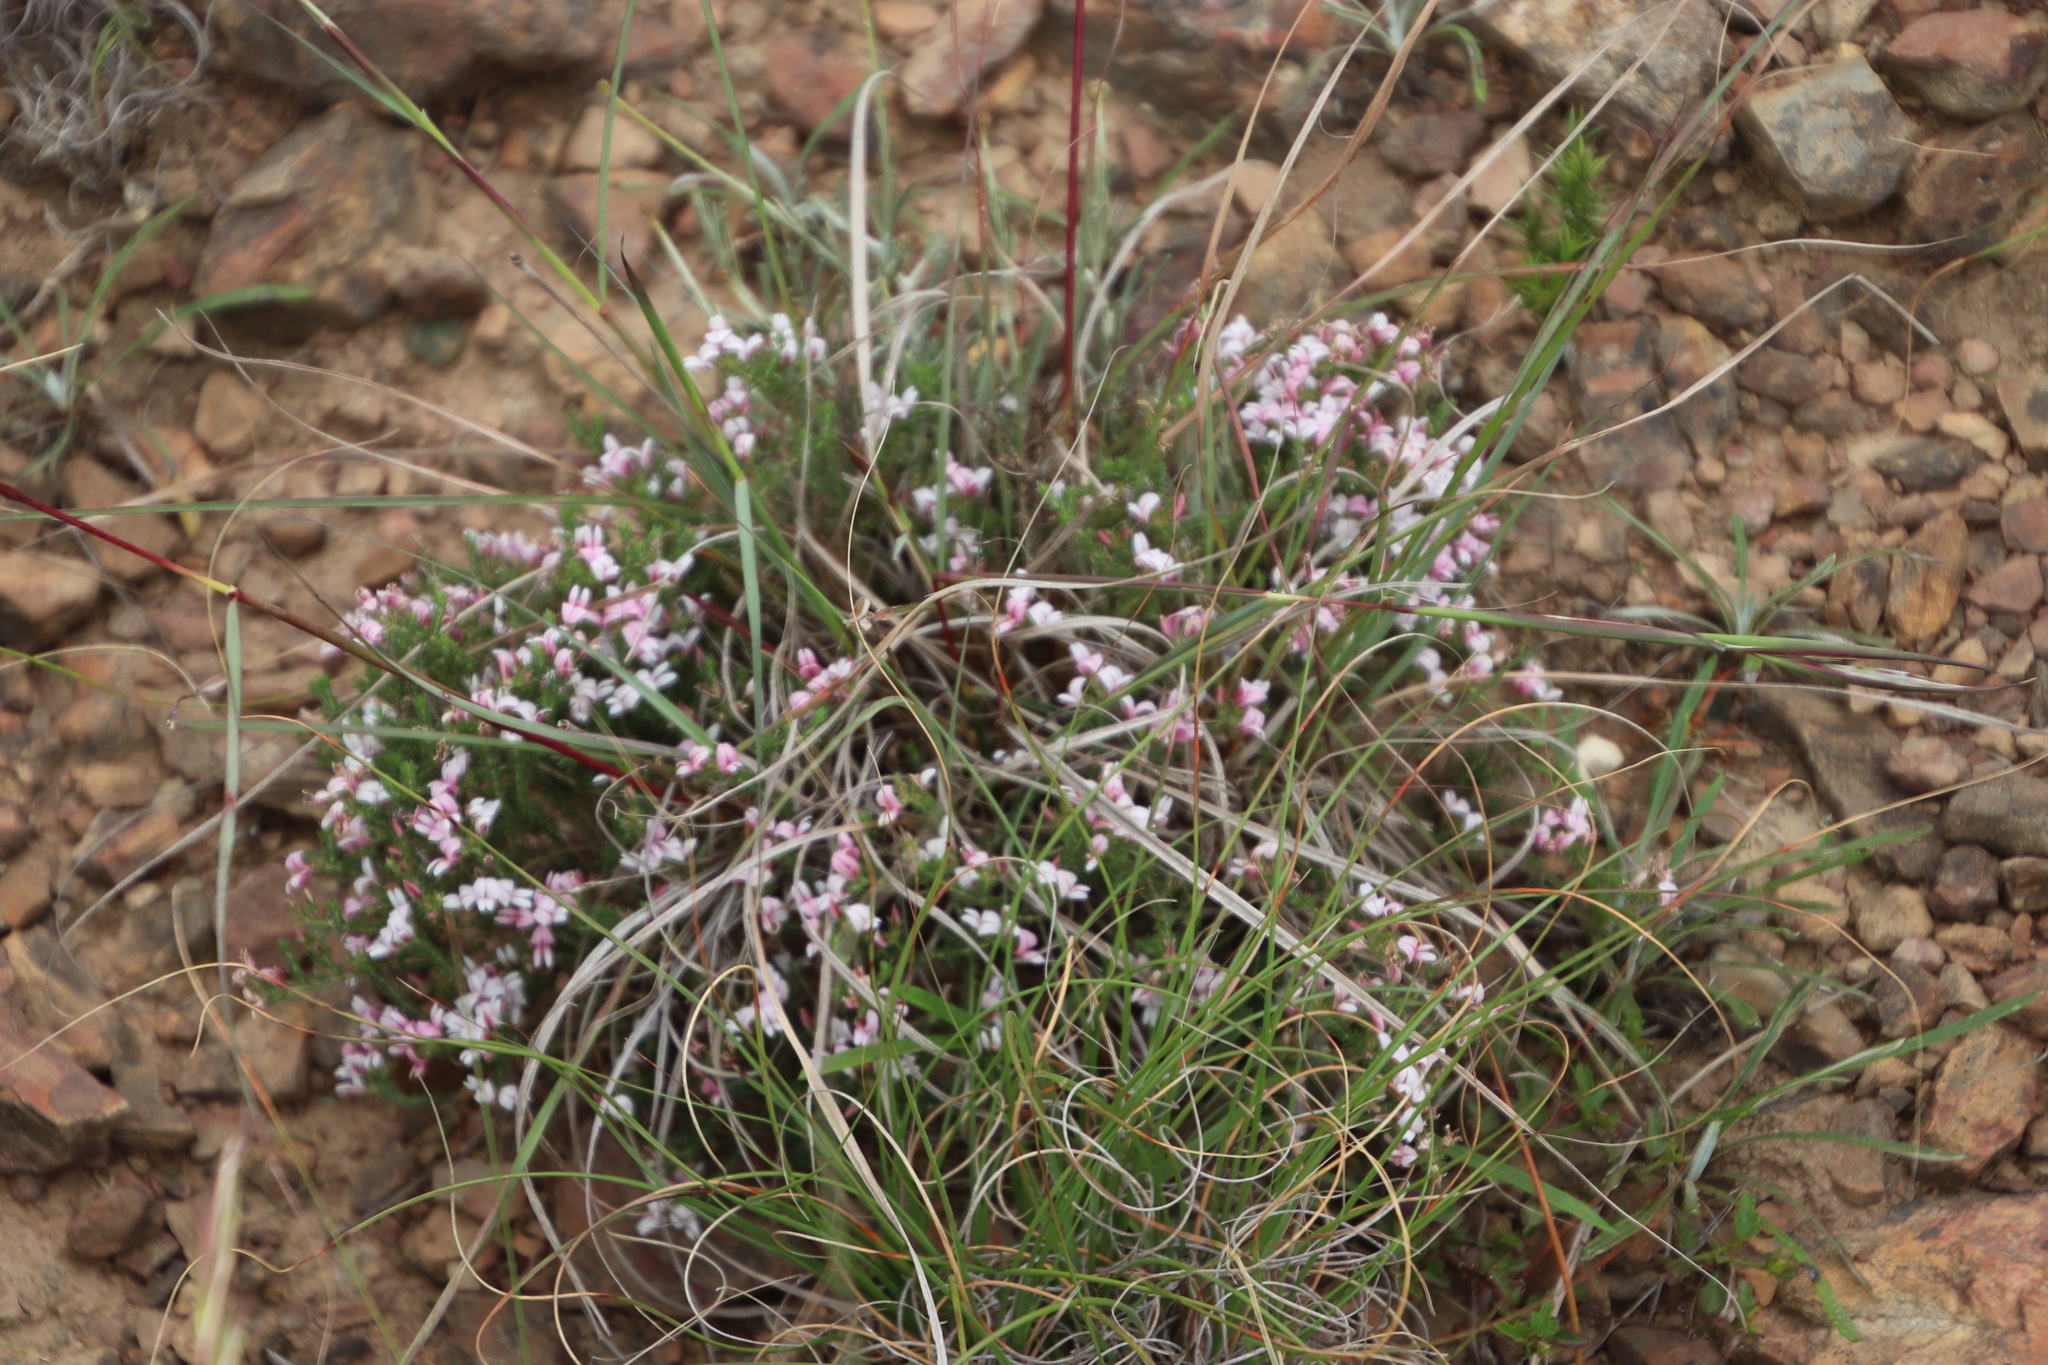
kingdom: Plantae
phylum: Tracheophyta
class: Magnoliopsida
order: Fabales
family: Fabaceae
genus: Aspalathus
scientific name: Aspalathus submissa
